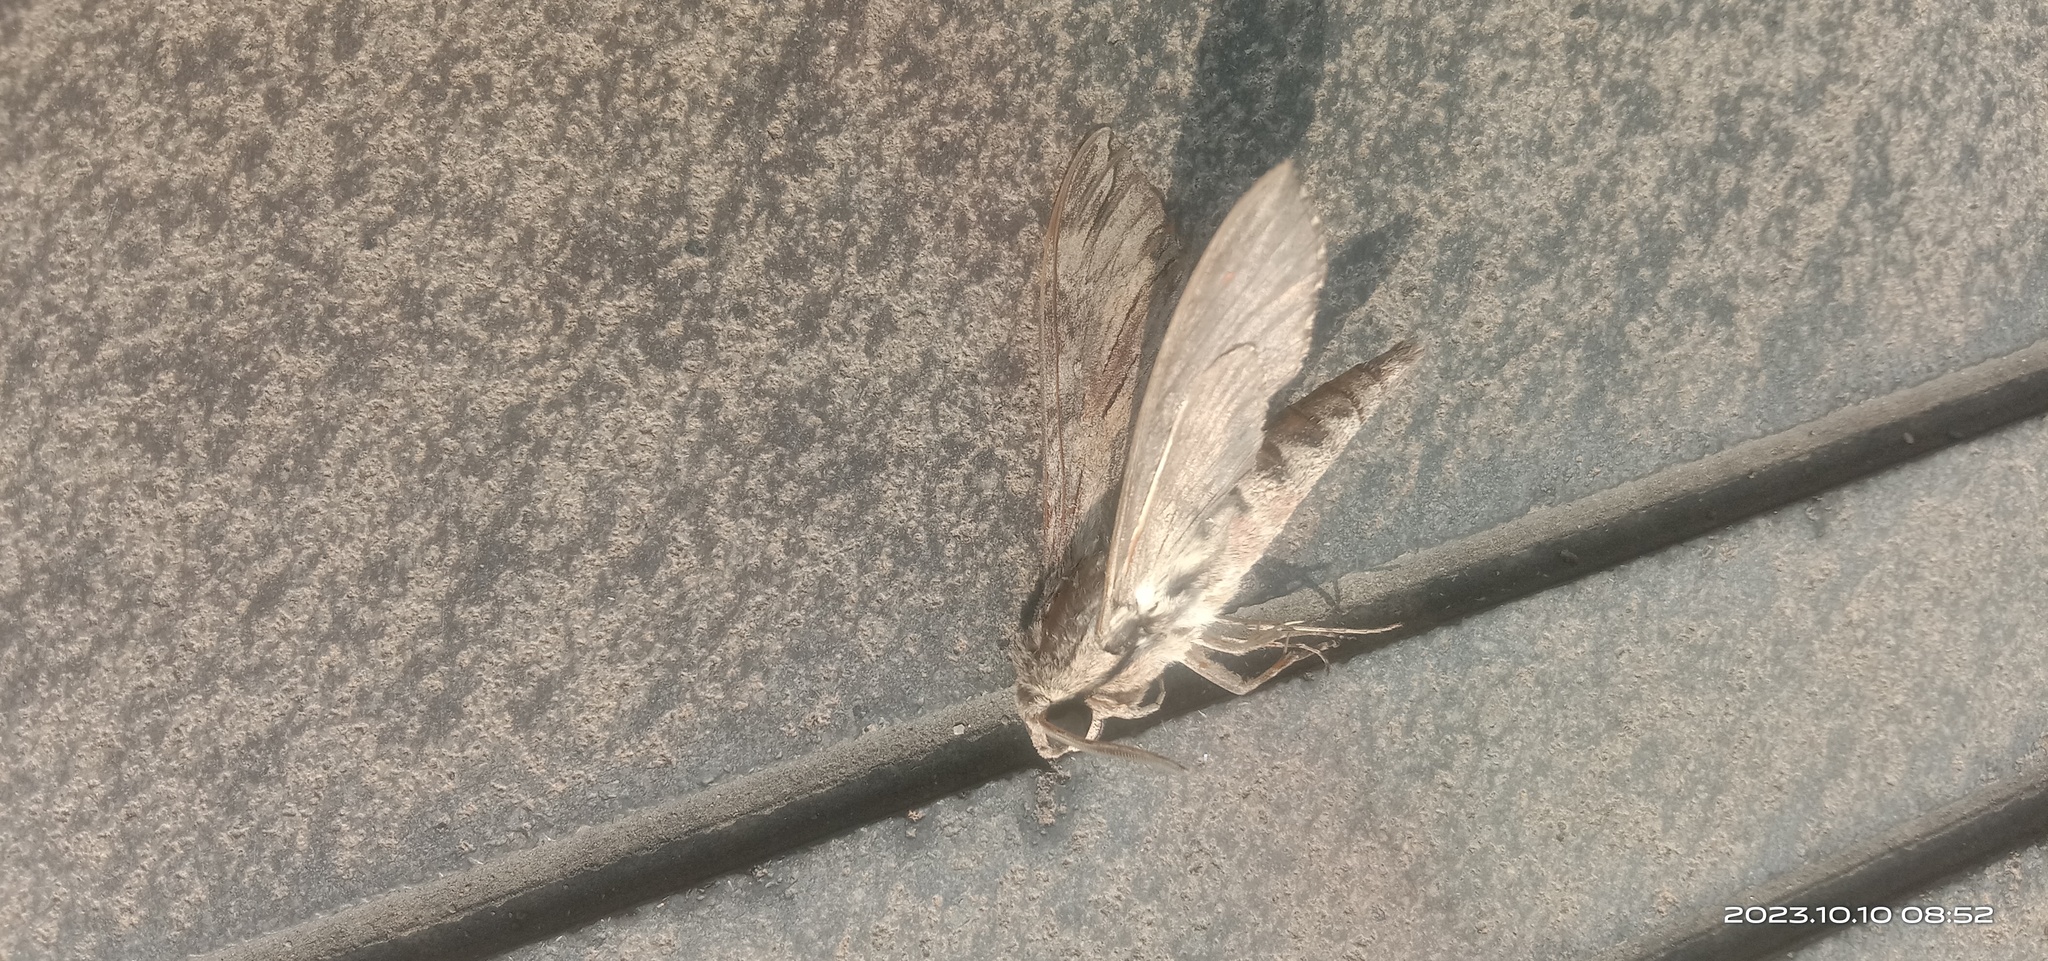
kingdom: Animalia
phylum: Arthropoda
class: Insecta
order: Lepidoptera
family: Sphingidae
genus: Agrius
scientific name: Agrius convolvuli
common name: Convolvulus hawkmoth
